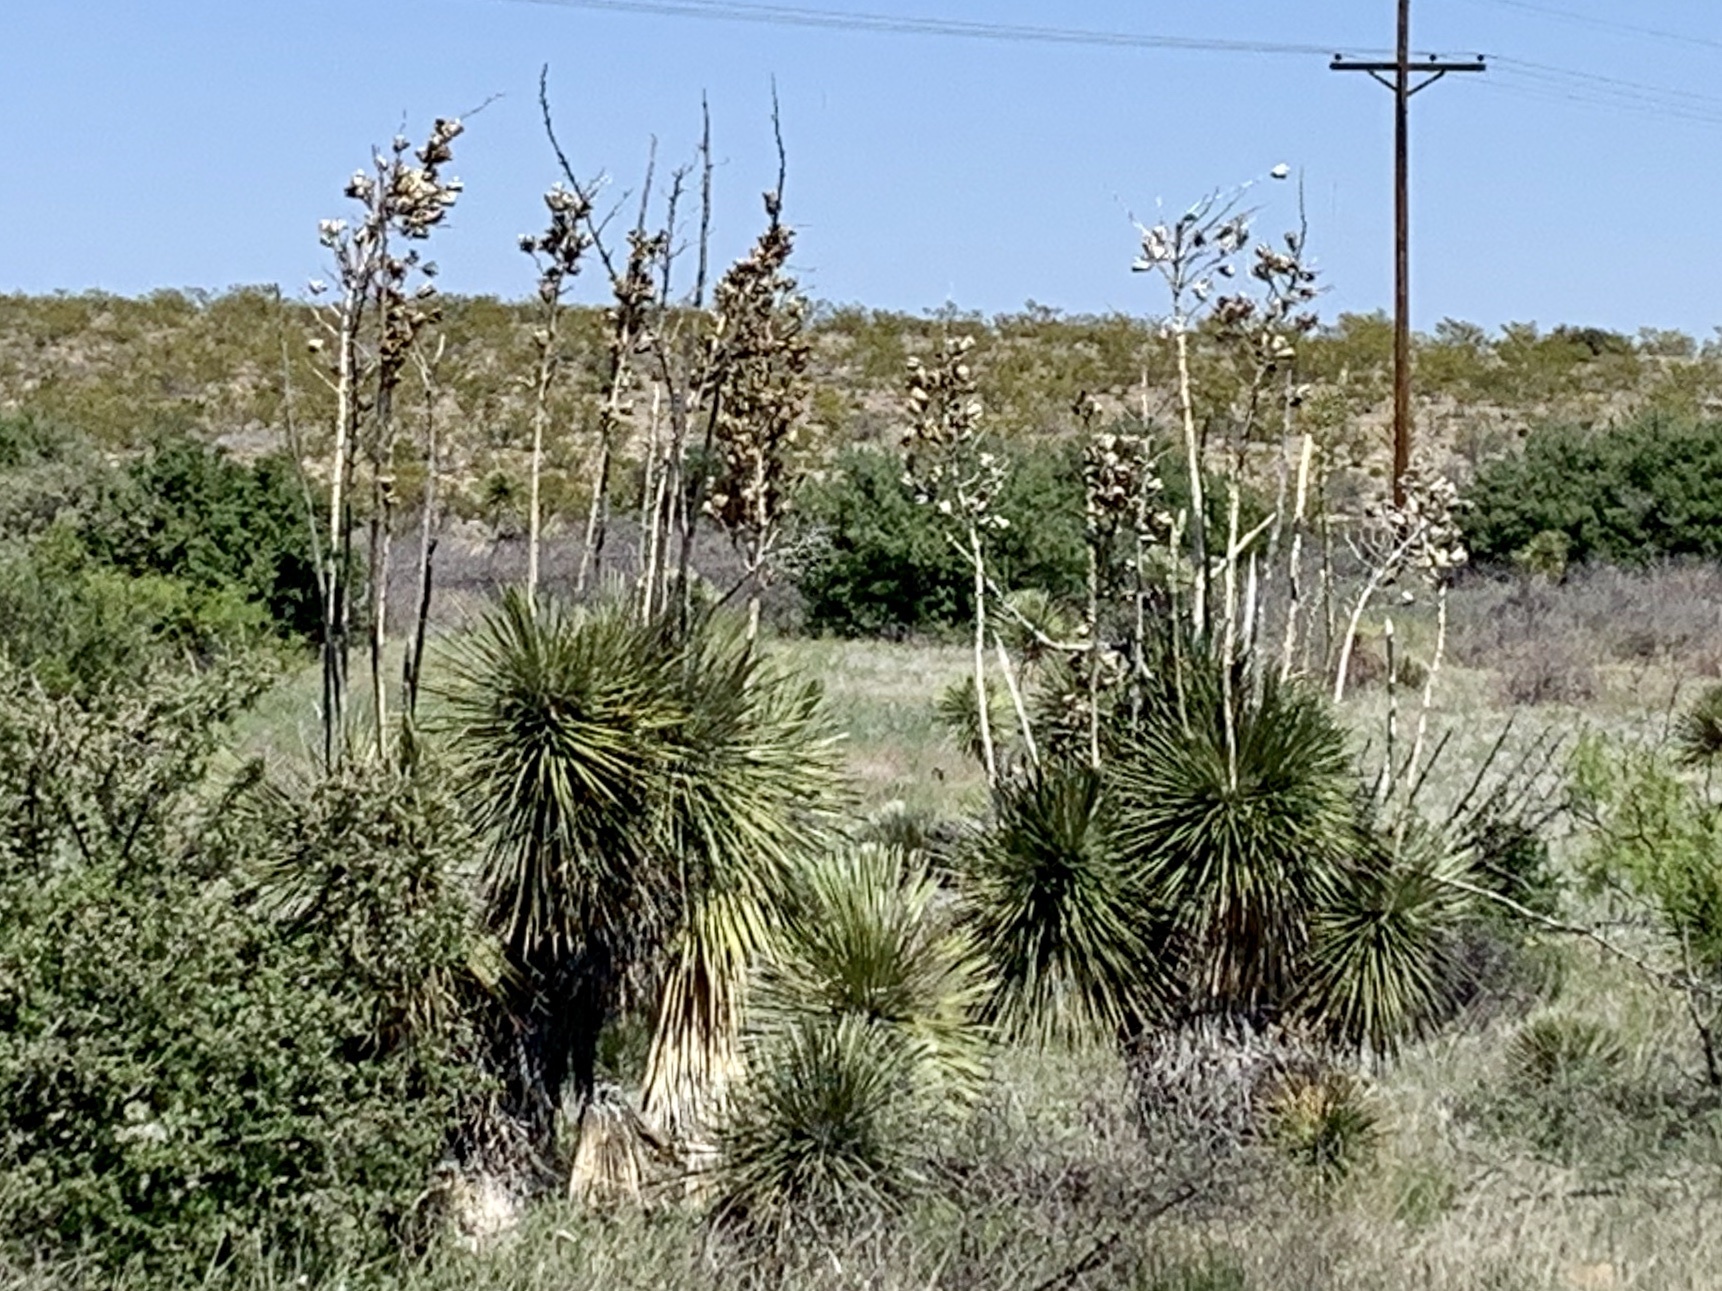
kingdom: Plantae
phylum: Tracheophyta
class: Liliopsida
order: Asparagales
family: Asparagaceae
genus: Yucca
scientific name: Yucca elata
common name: Palmella
